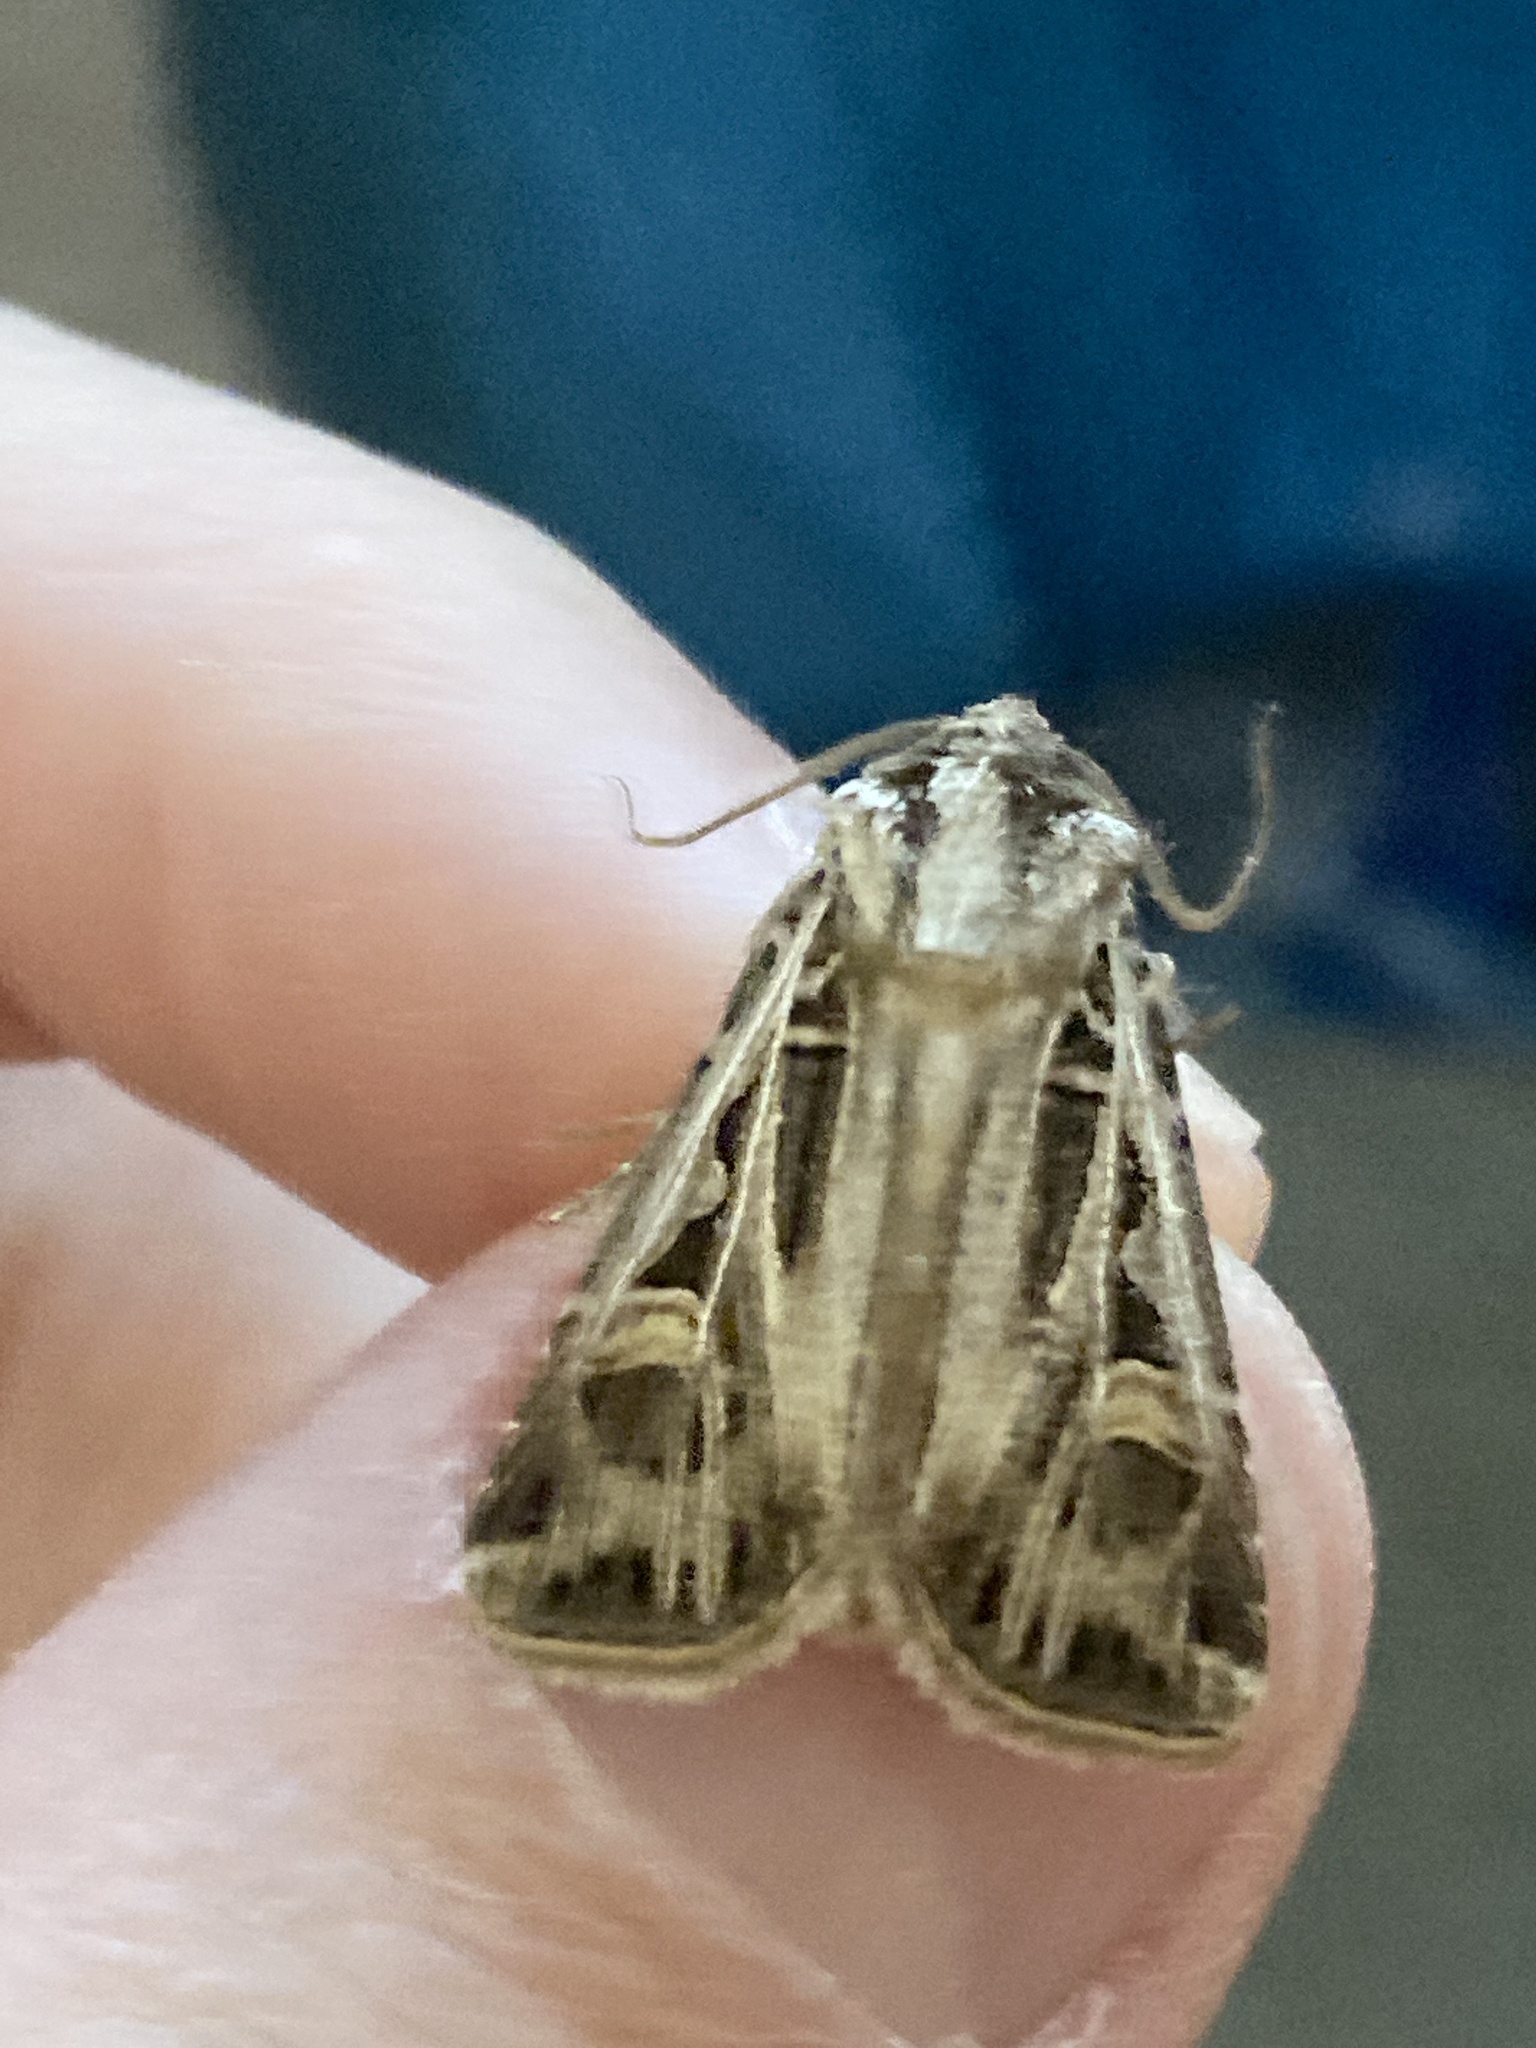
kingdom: Animalia
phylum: Arthropoda
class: Insecta
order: Lepidoptera
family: Noctuidae
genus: Feltia
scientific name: Feltia jaculifera
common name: Dingy cutworm moth
